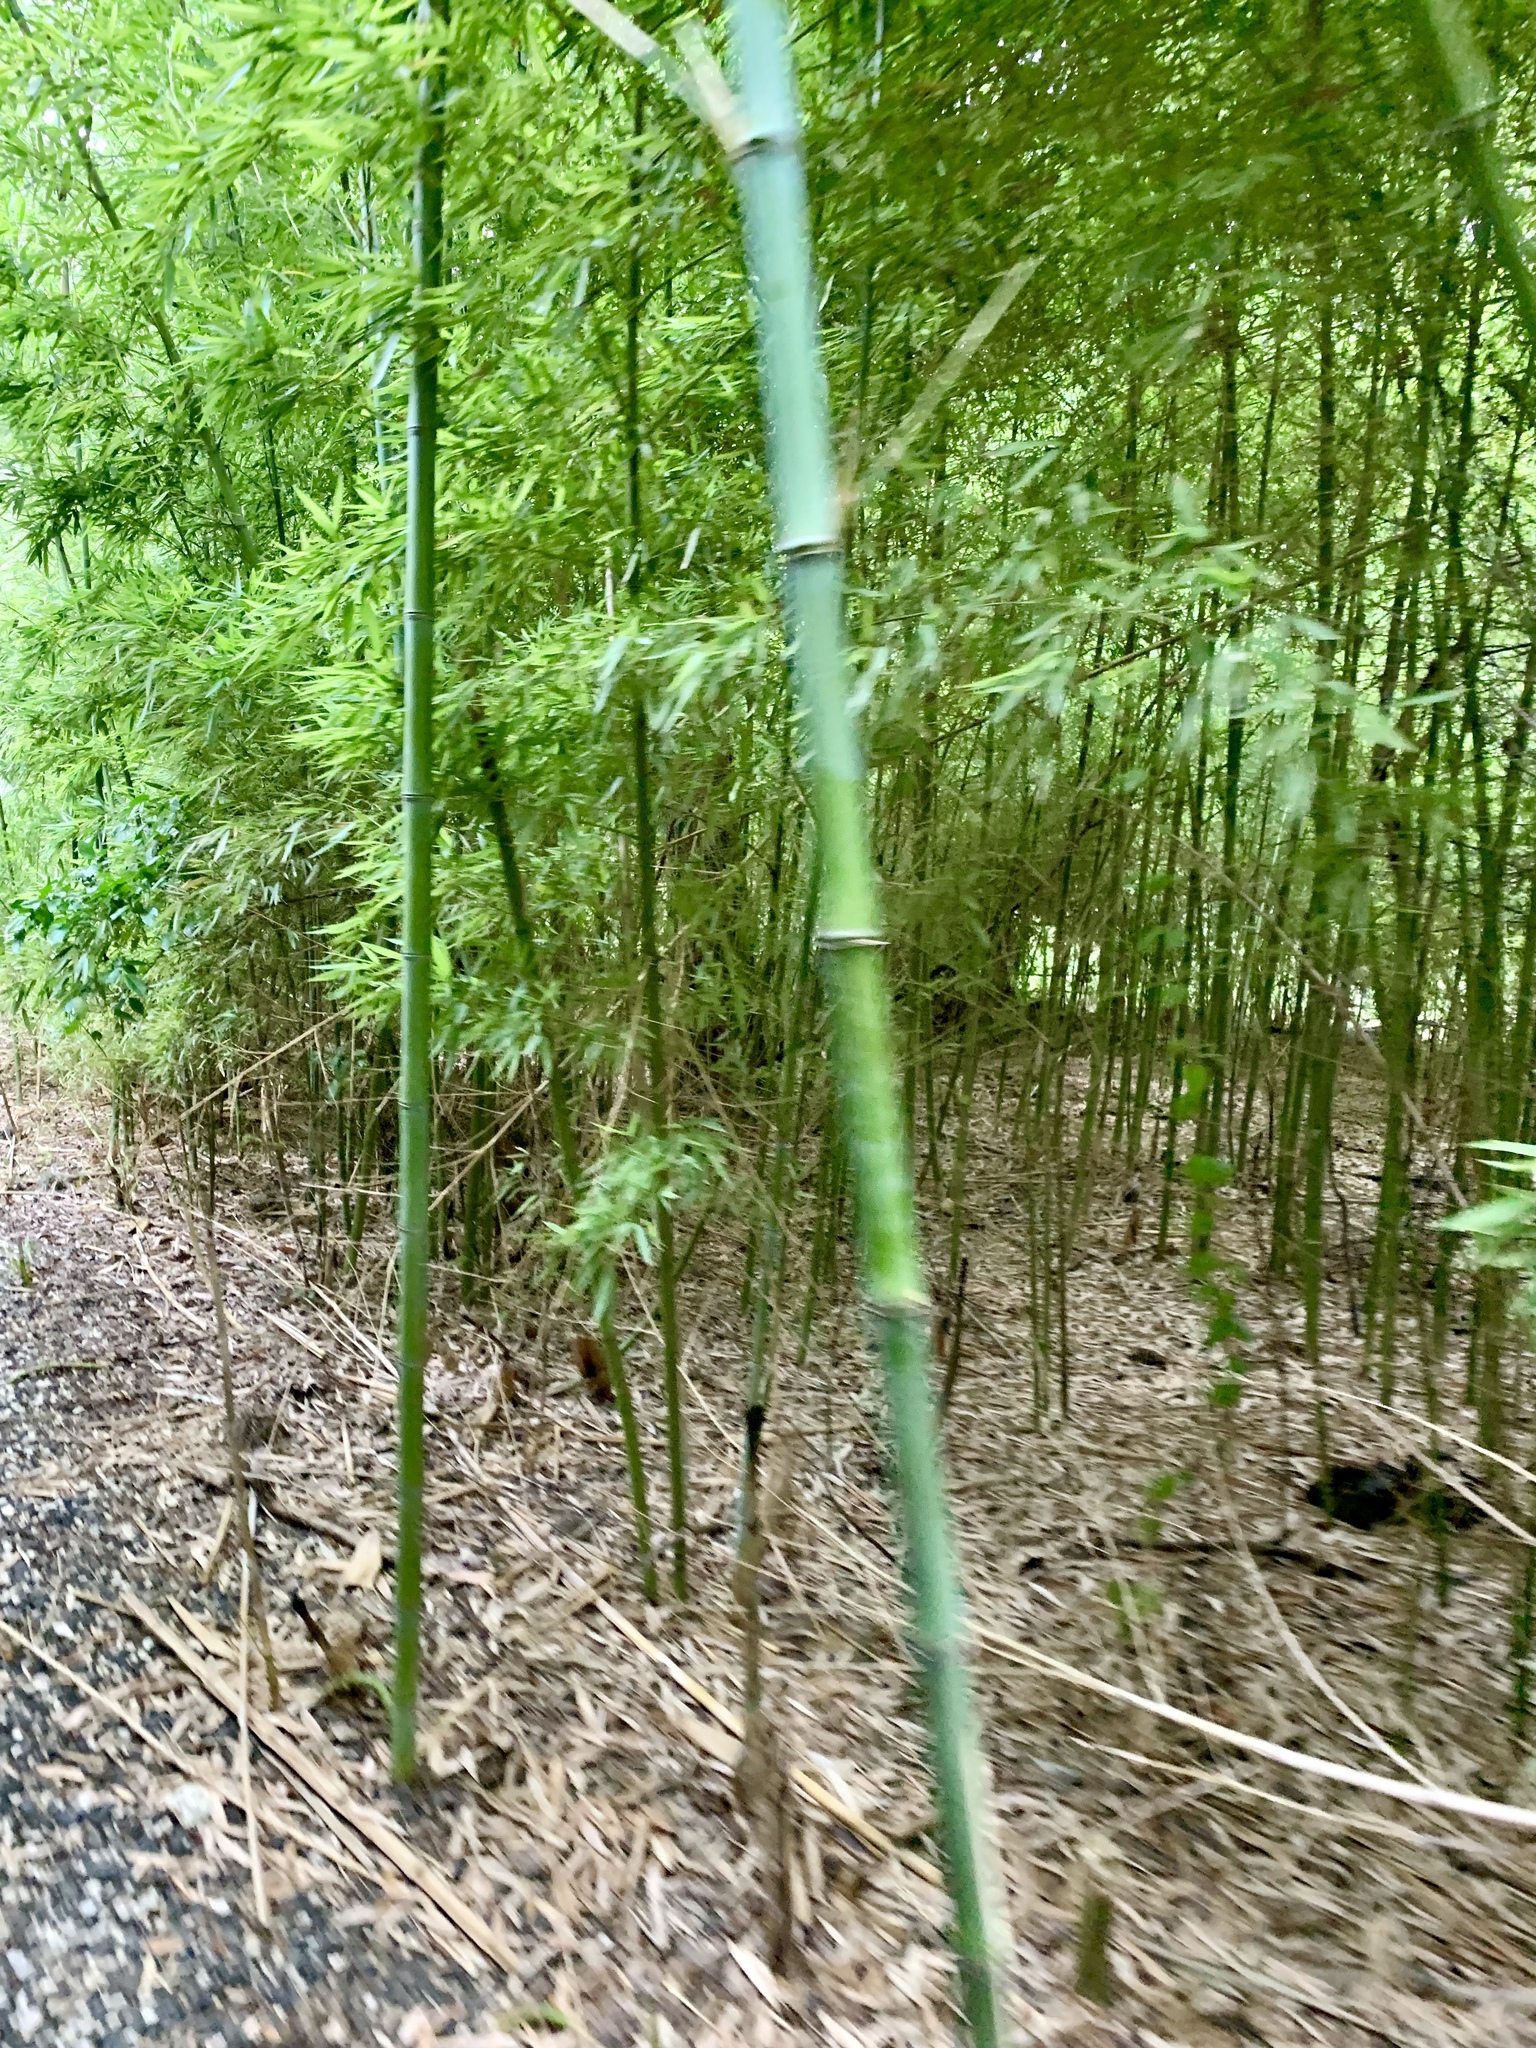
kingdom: Plantae
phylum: Tracheophyta
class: Liliopsida
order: Poales
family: Poaceae
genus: Phyllostachys
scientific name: Phyllostachys aurea
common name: Golden bamboo
